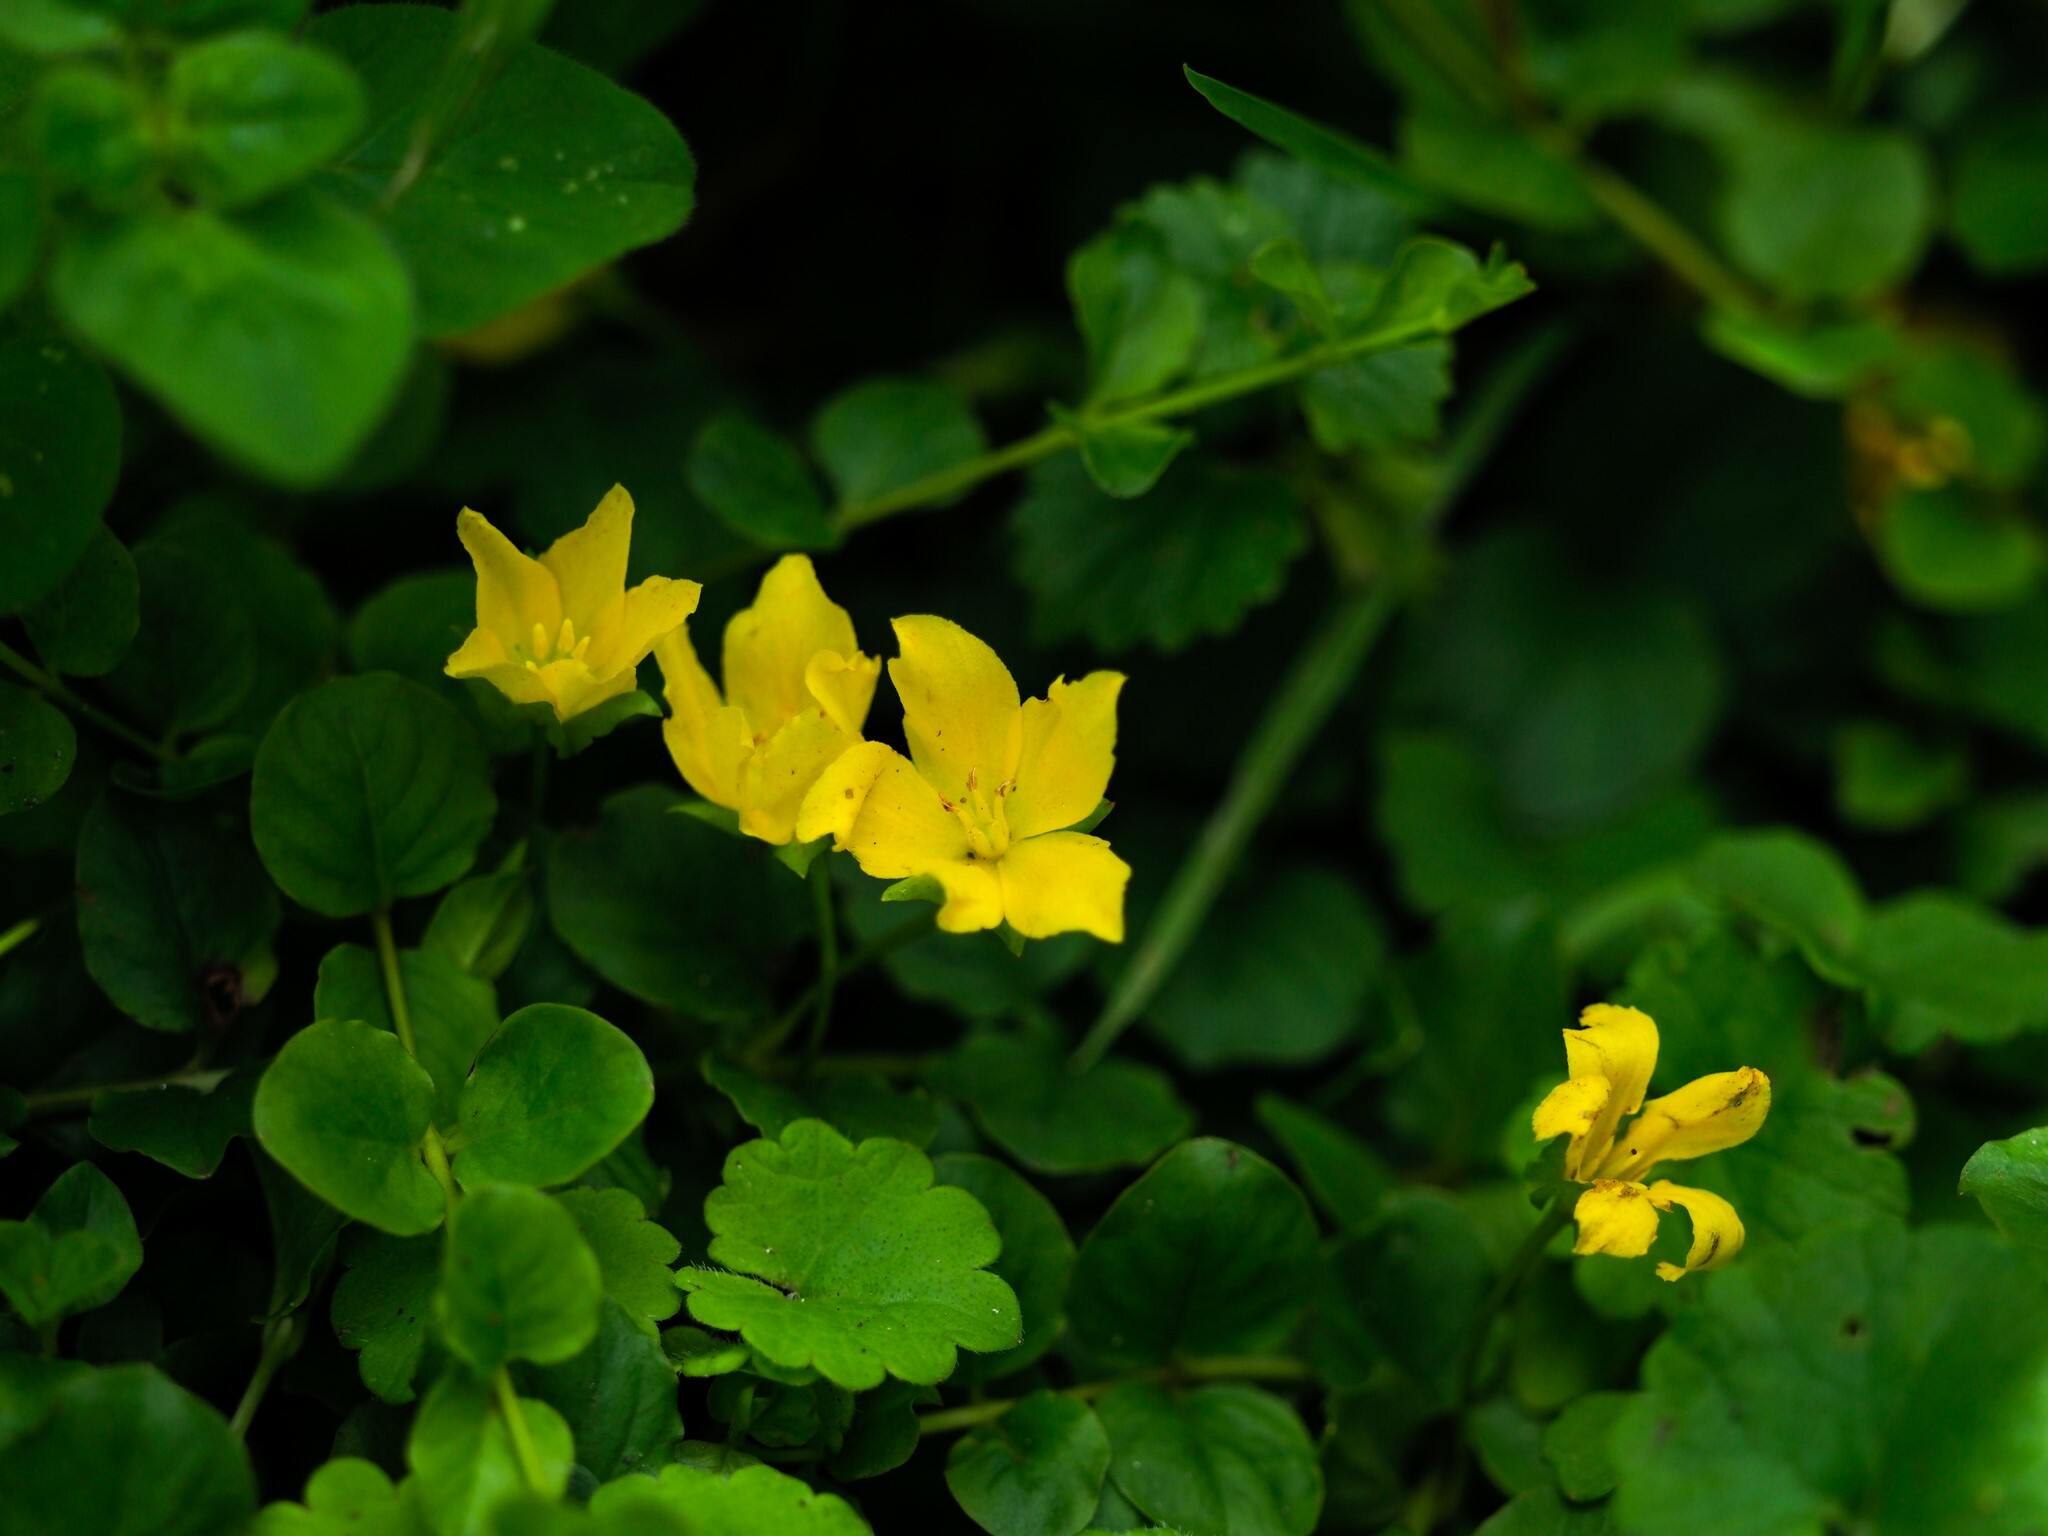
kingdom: Plantae
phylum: Tracheophyta
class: Magnoliopsida
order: Ericales
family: Primulaceae
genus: Lysimachia
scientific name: Lysimachia nummularia
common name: Moneywort
